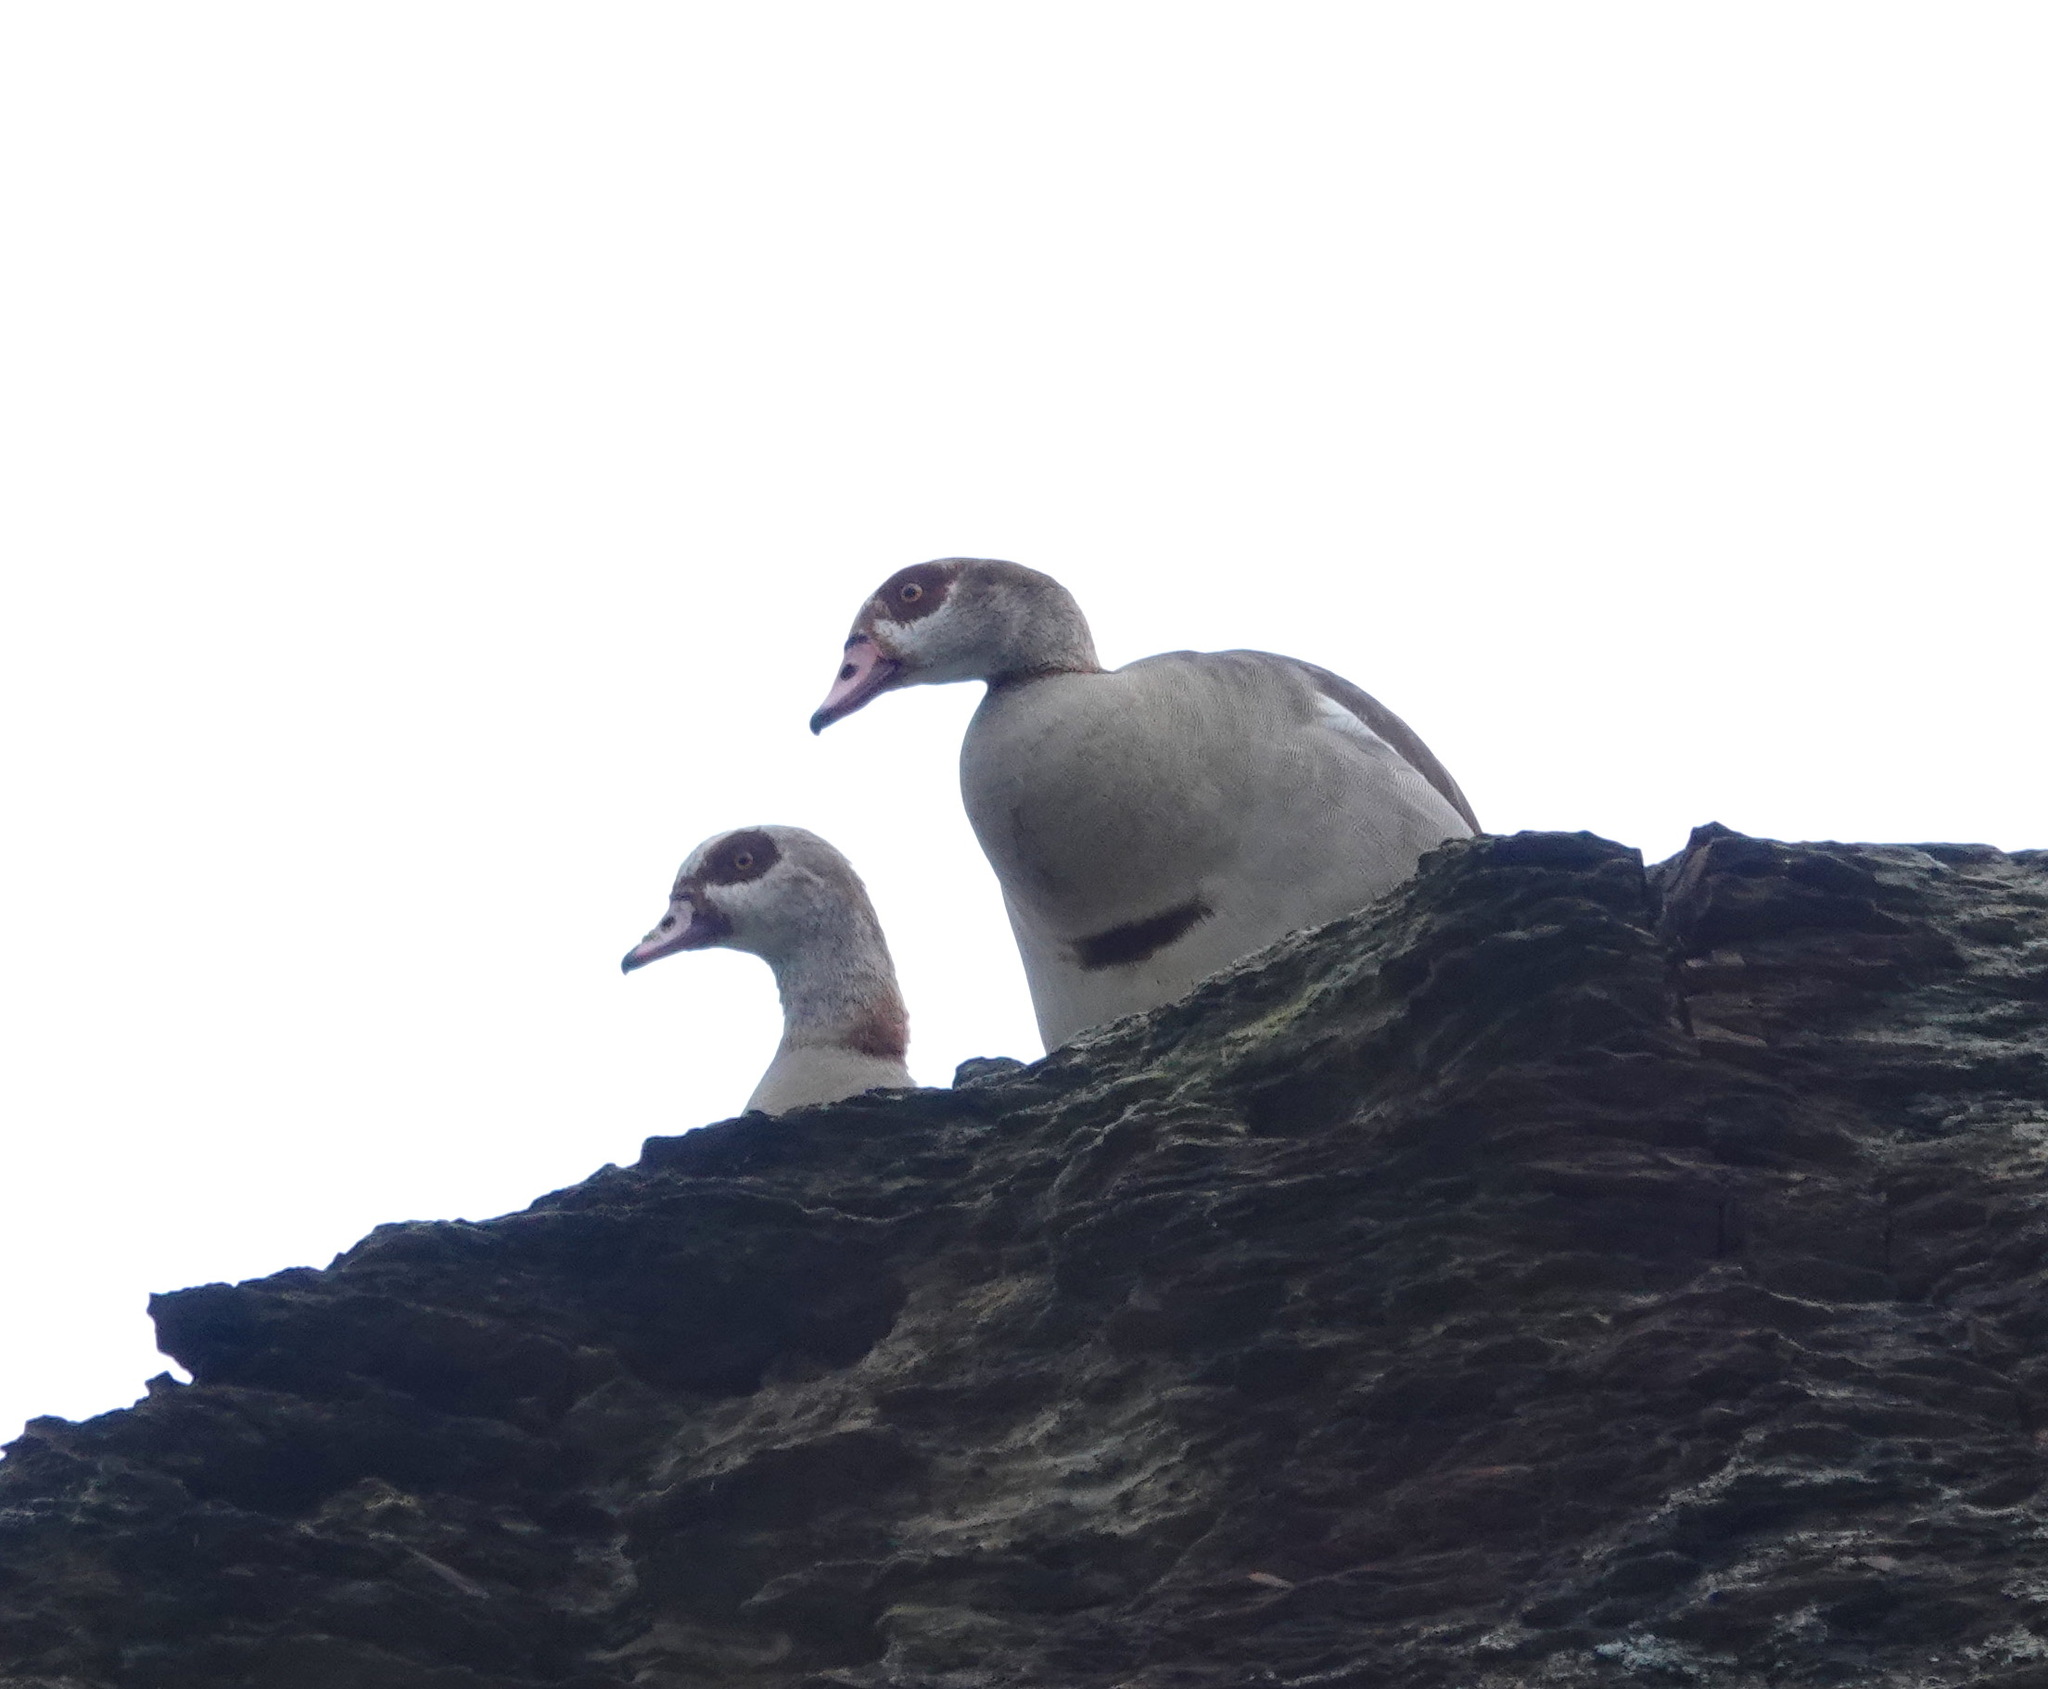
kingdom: Animalia
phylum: Chordata
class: Aves
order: Anseriformes
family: Anatidae
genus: Alopochen
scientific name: Alopochen aegyptiaca
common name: Egyptian goose
